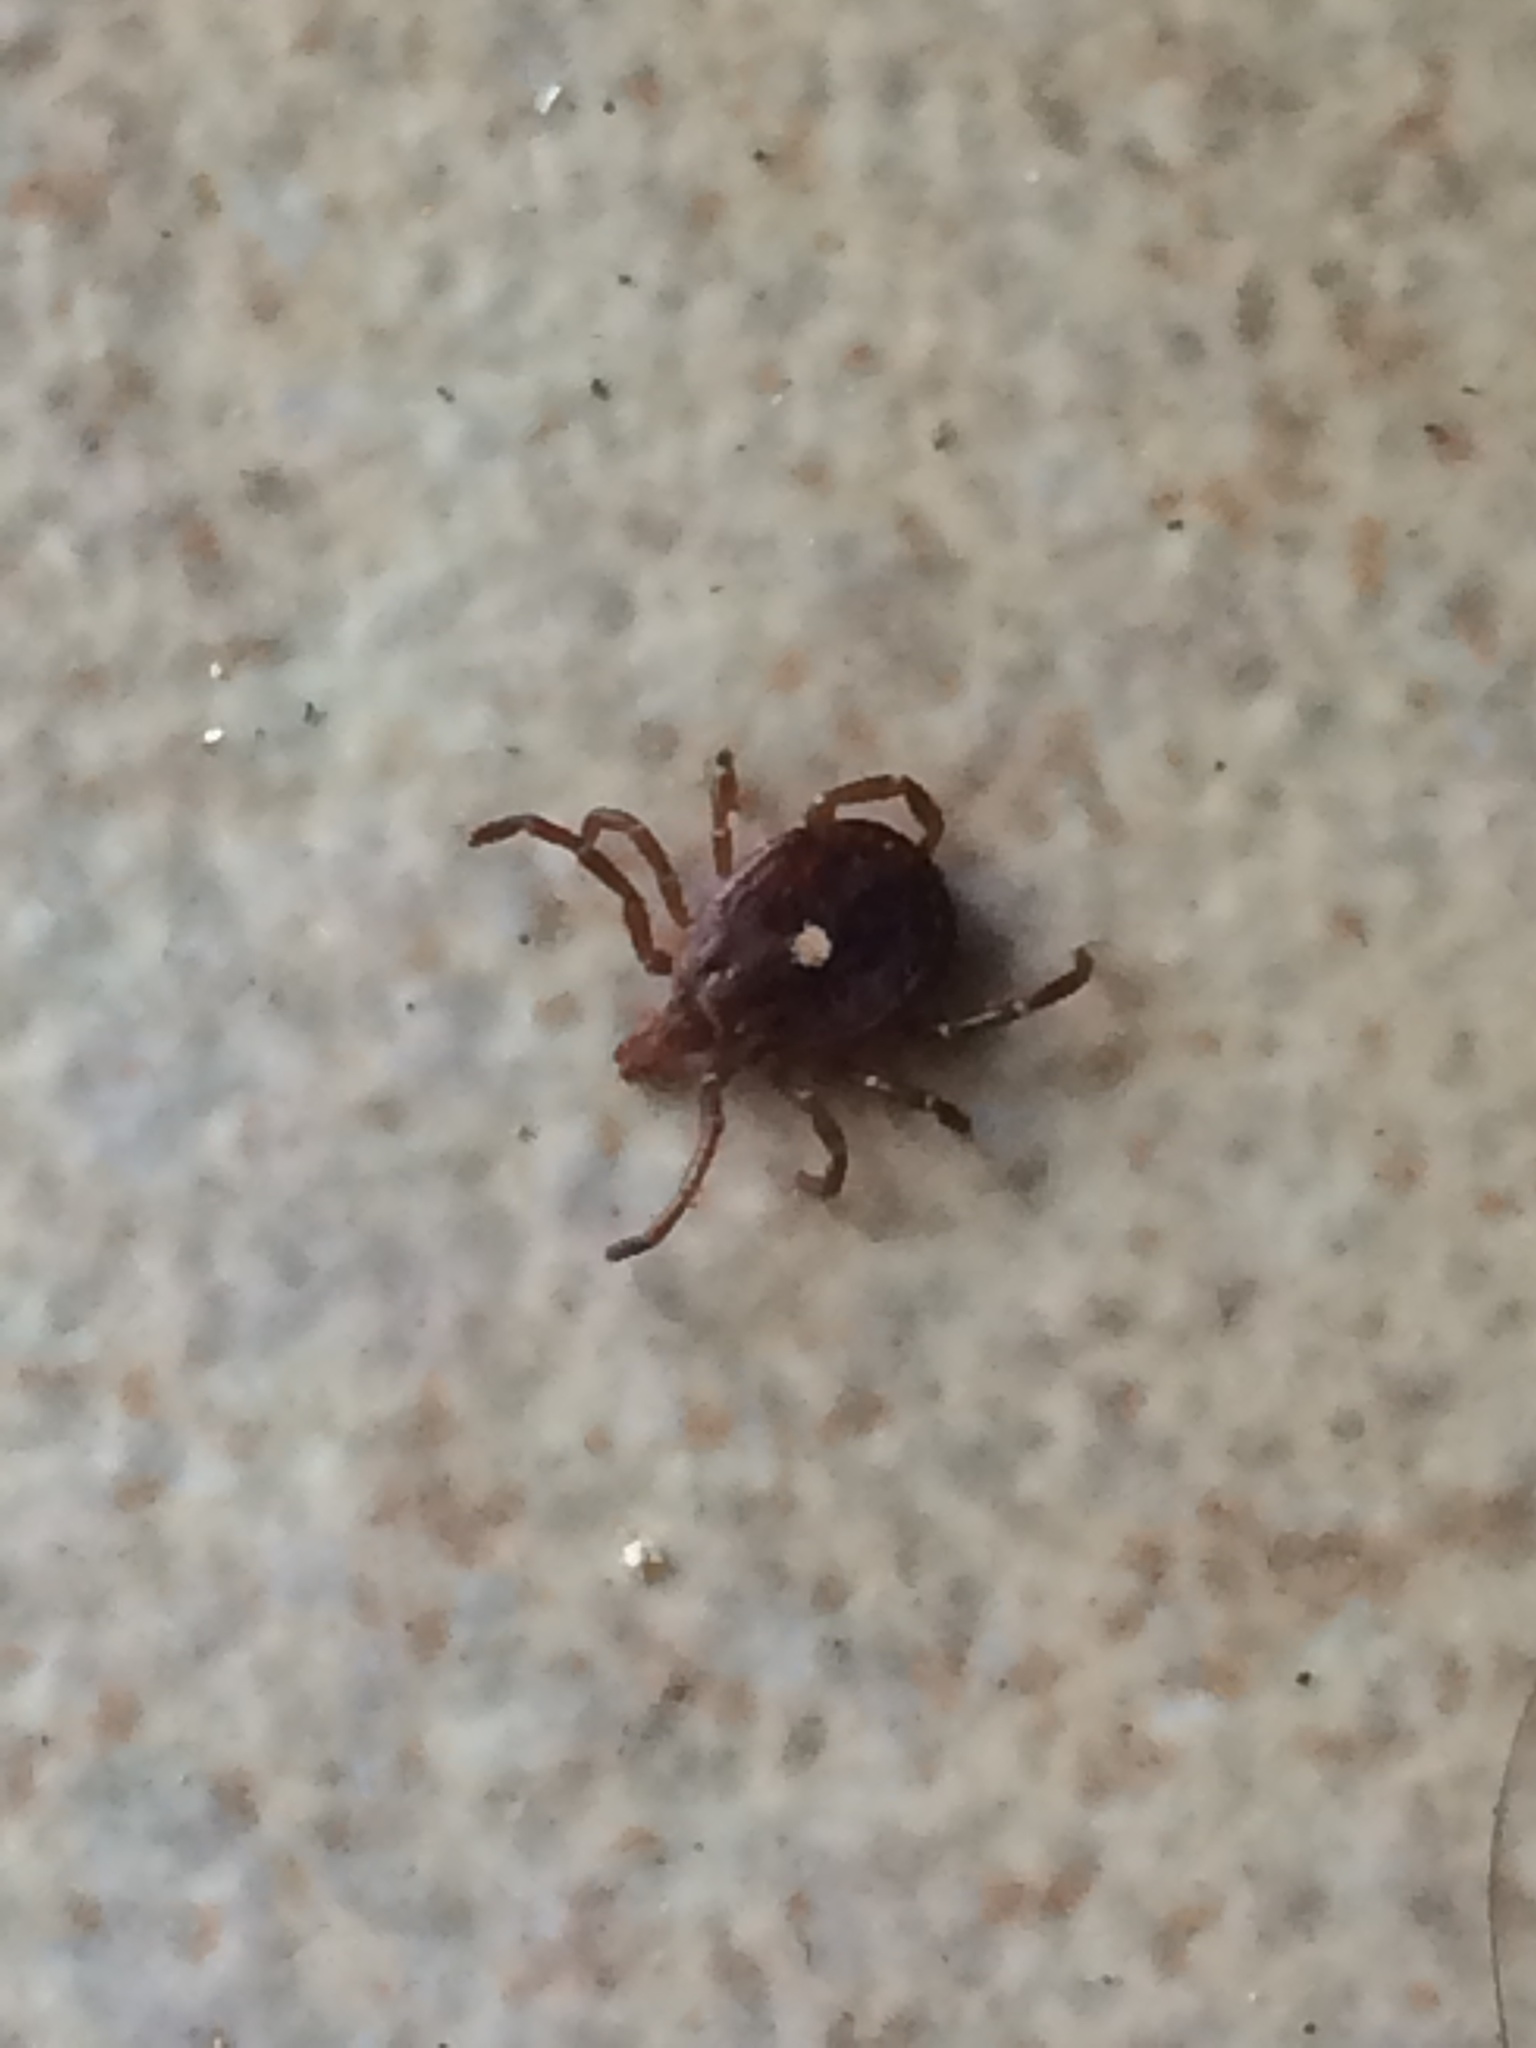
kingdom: Animalia
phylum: Arthropoda
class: Arachnida
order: Ixodida
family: Ixodidae
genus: Amblyomma
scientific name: Amblyomma americanum
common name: Lone star tick
